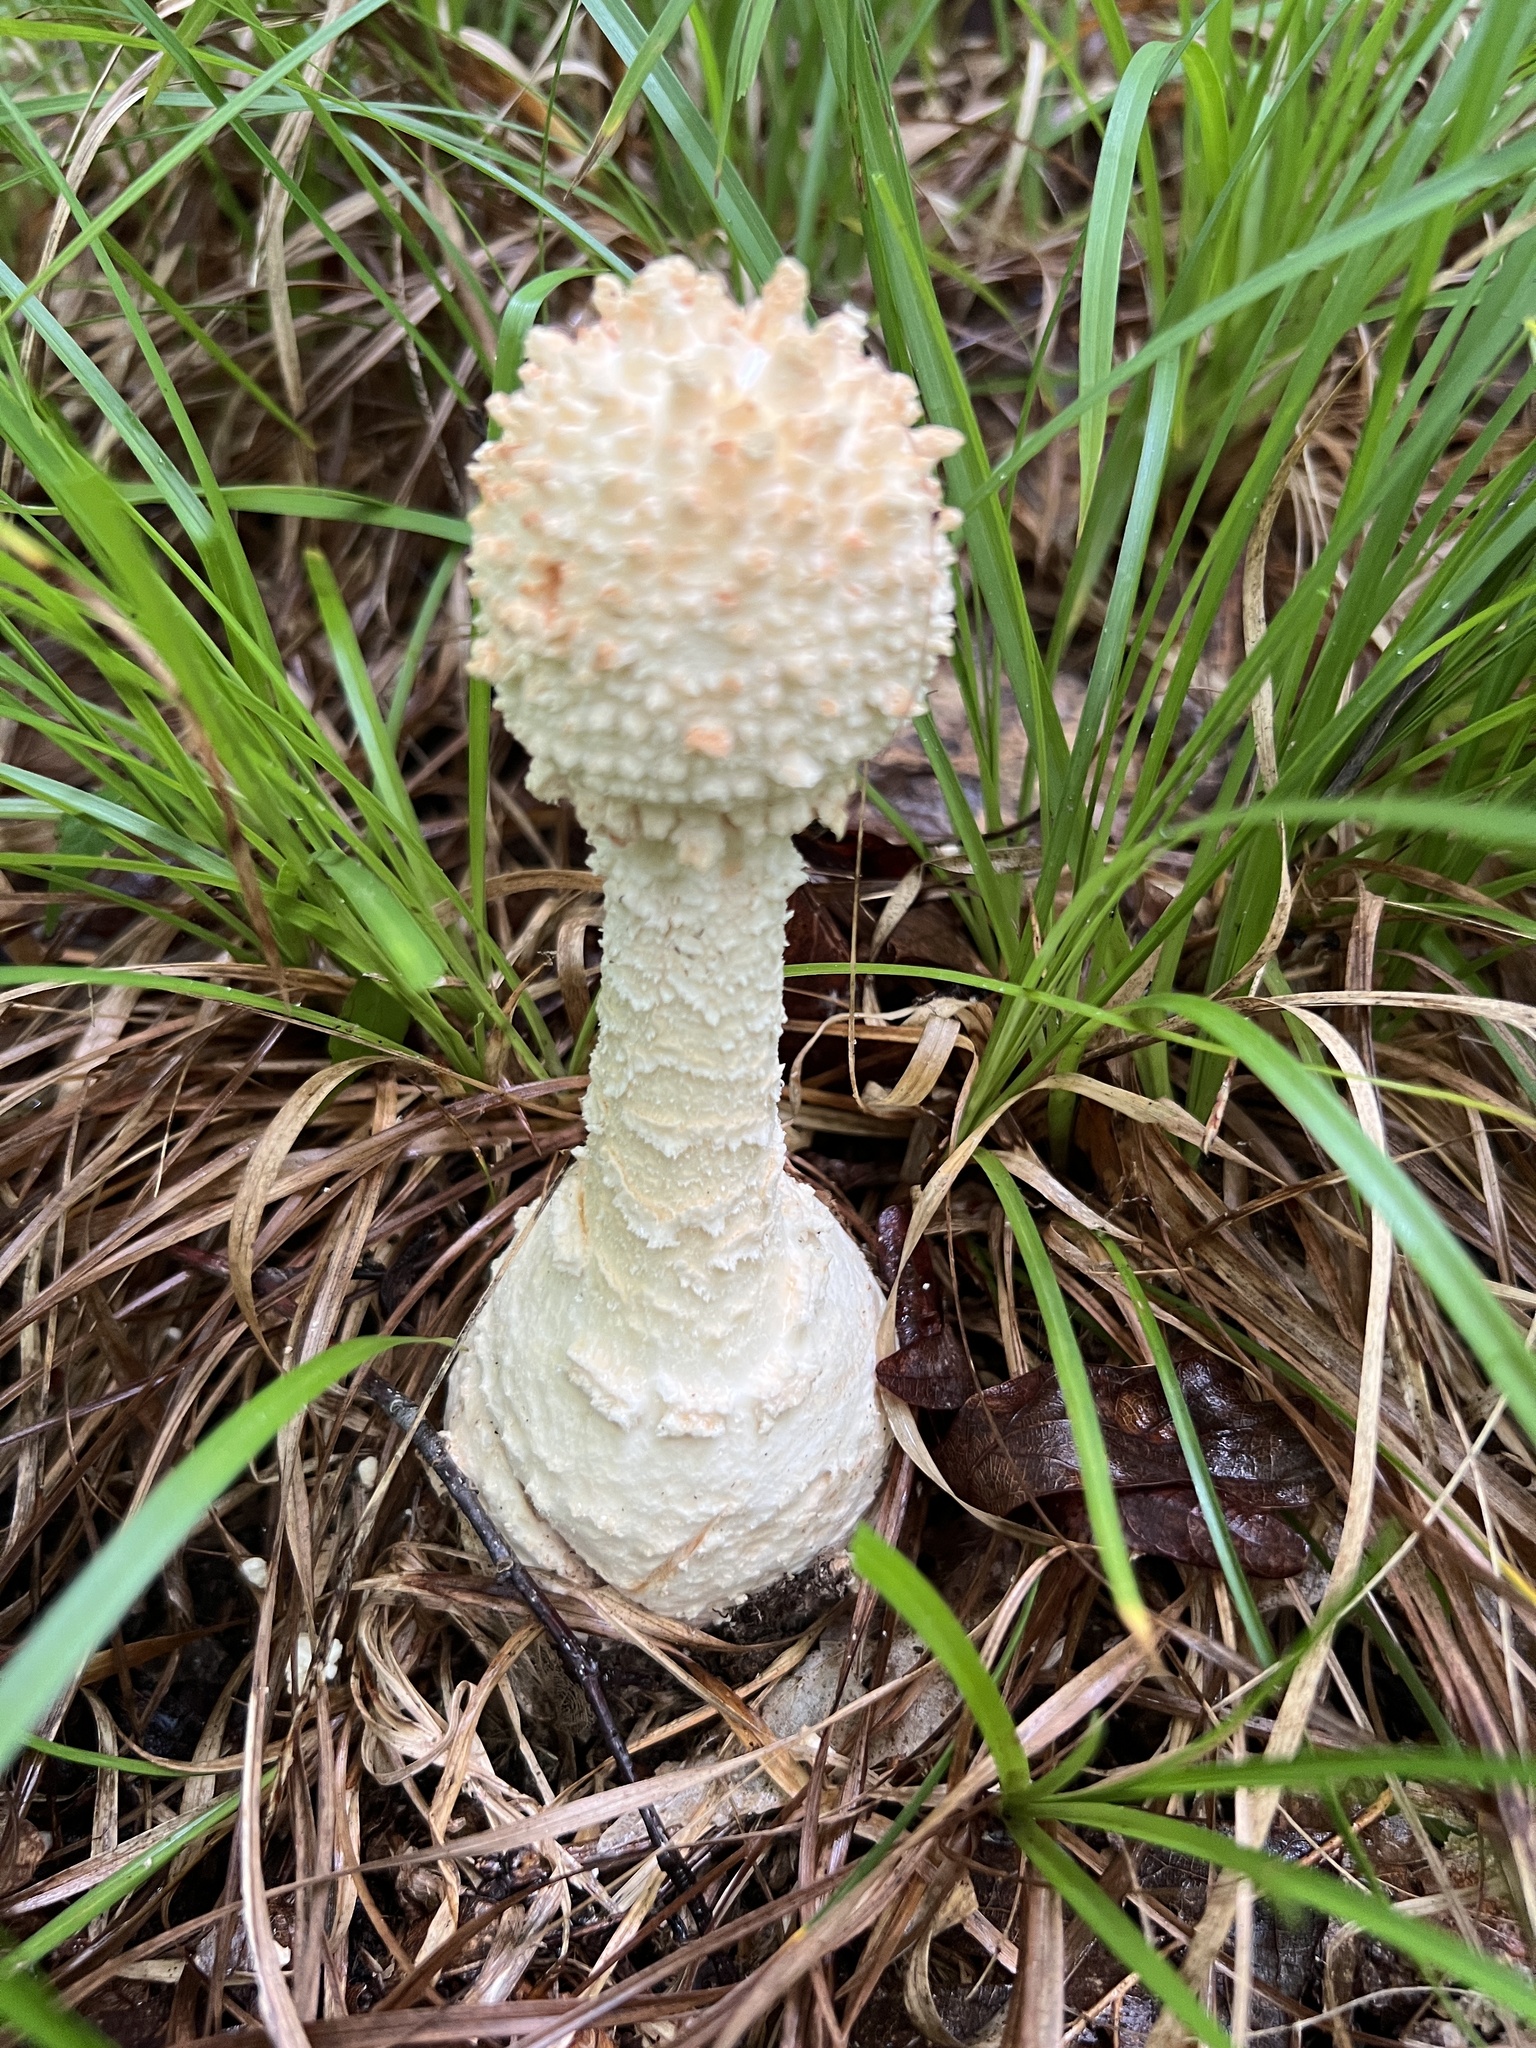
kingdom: Fungi
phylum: Basidiomycota
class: Agaricomycetes
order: Agaricales
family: Amanitaceae
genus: Amanita
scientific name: Amanita daucipes
